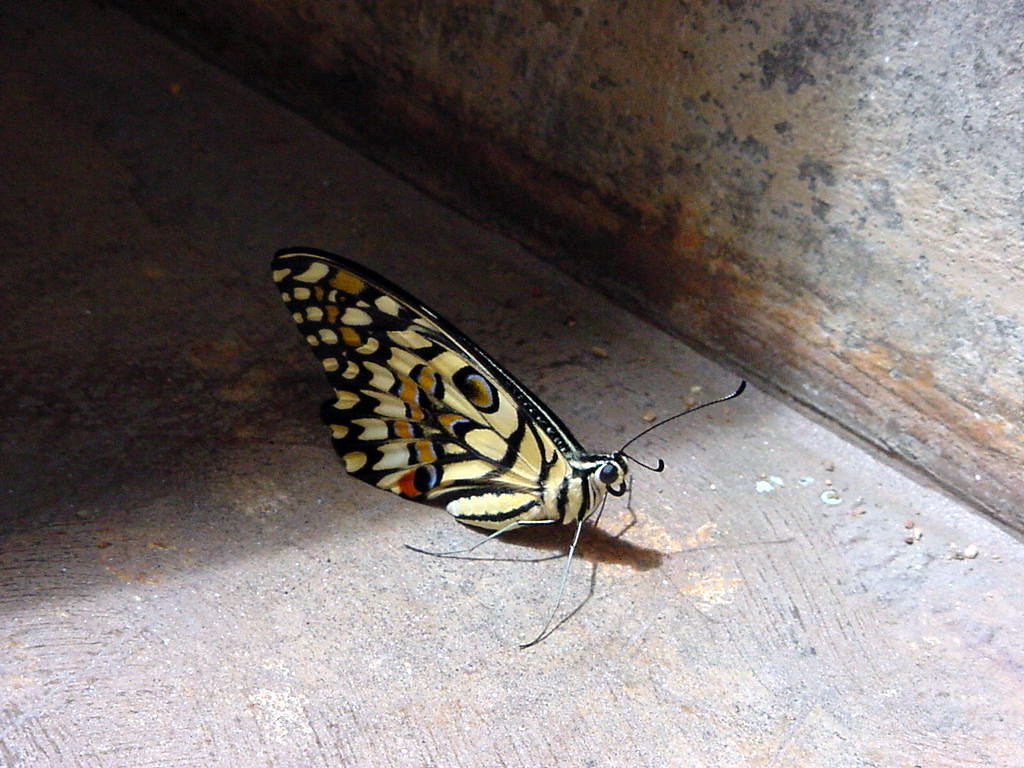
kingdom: Animalia
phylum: Arthropoda
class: Insecta
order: Lepidoptera
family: Papilionidae
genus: Papilio
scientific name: Papilio demoleus
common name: Lime butterfly
